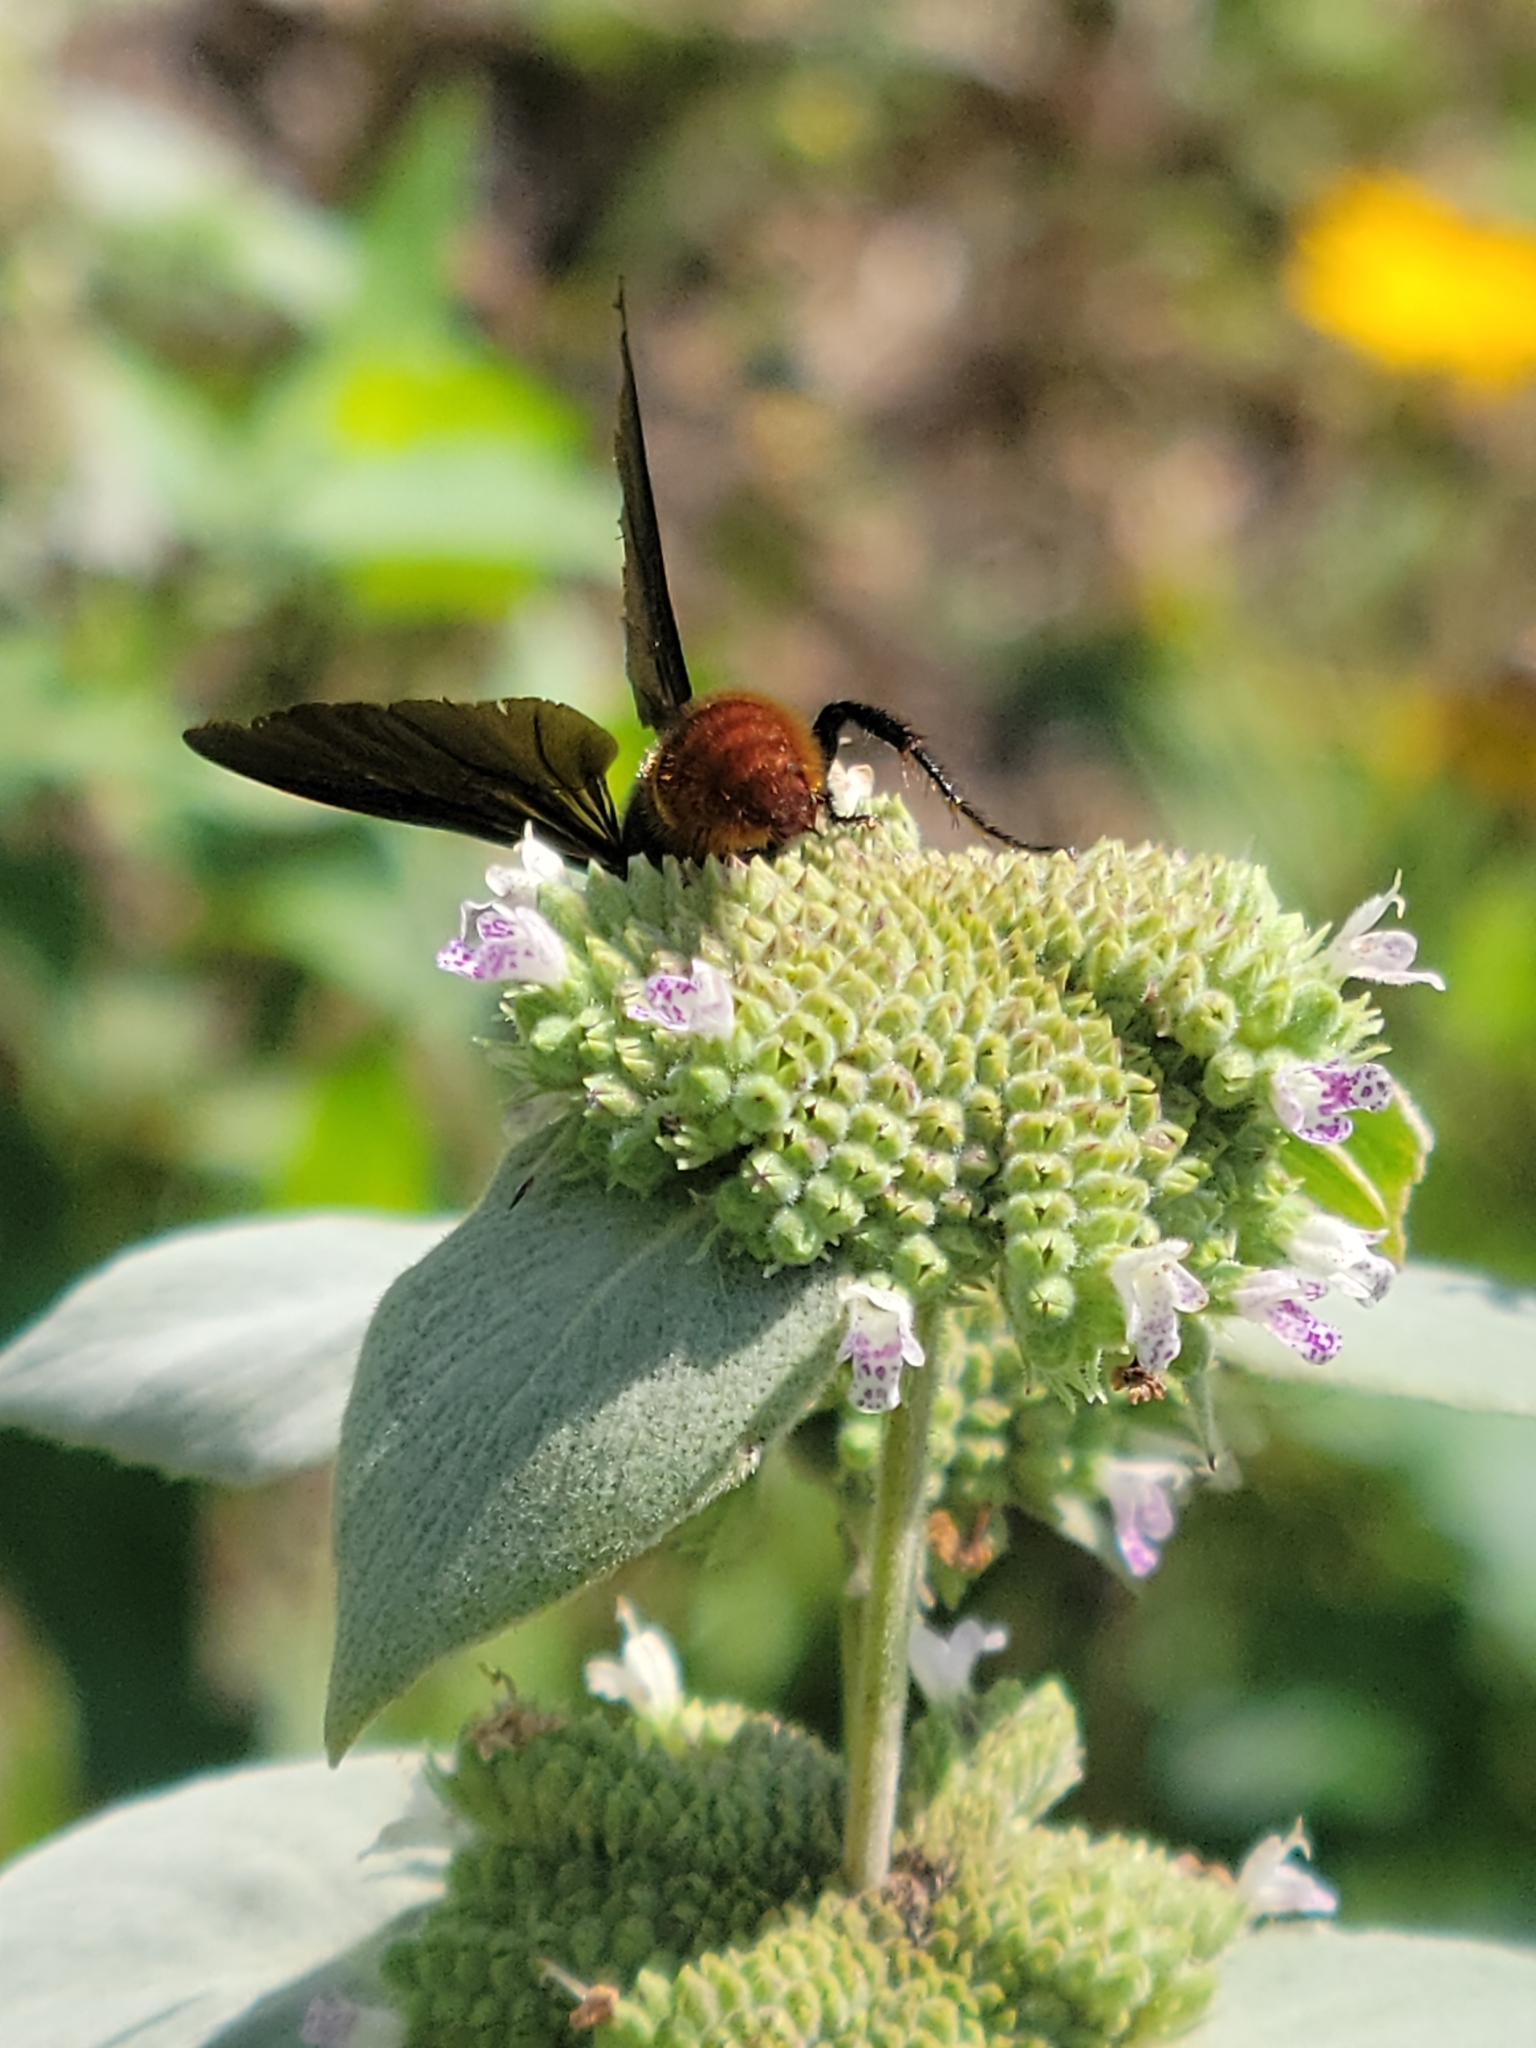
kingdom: Animalia
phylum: Arthropoda
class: Insecta
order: Hymenoptera
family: Scoliidae
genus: Scolia
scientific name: Scolia dubia
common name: Blue-winged scoliid wasp
